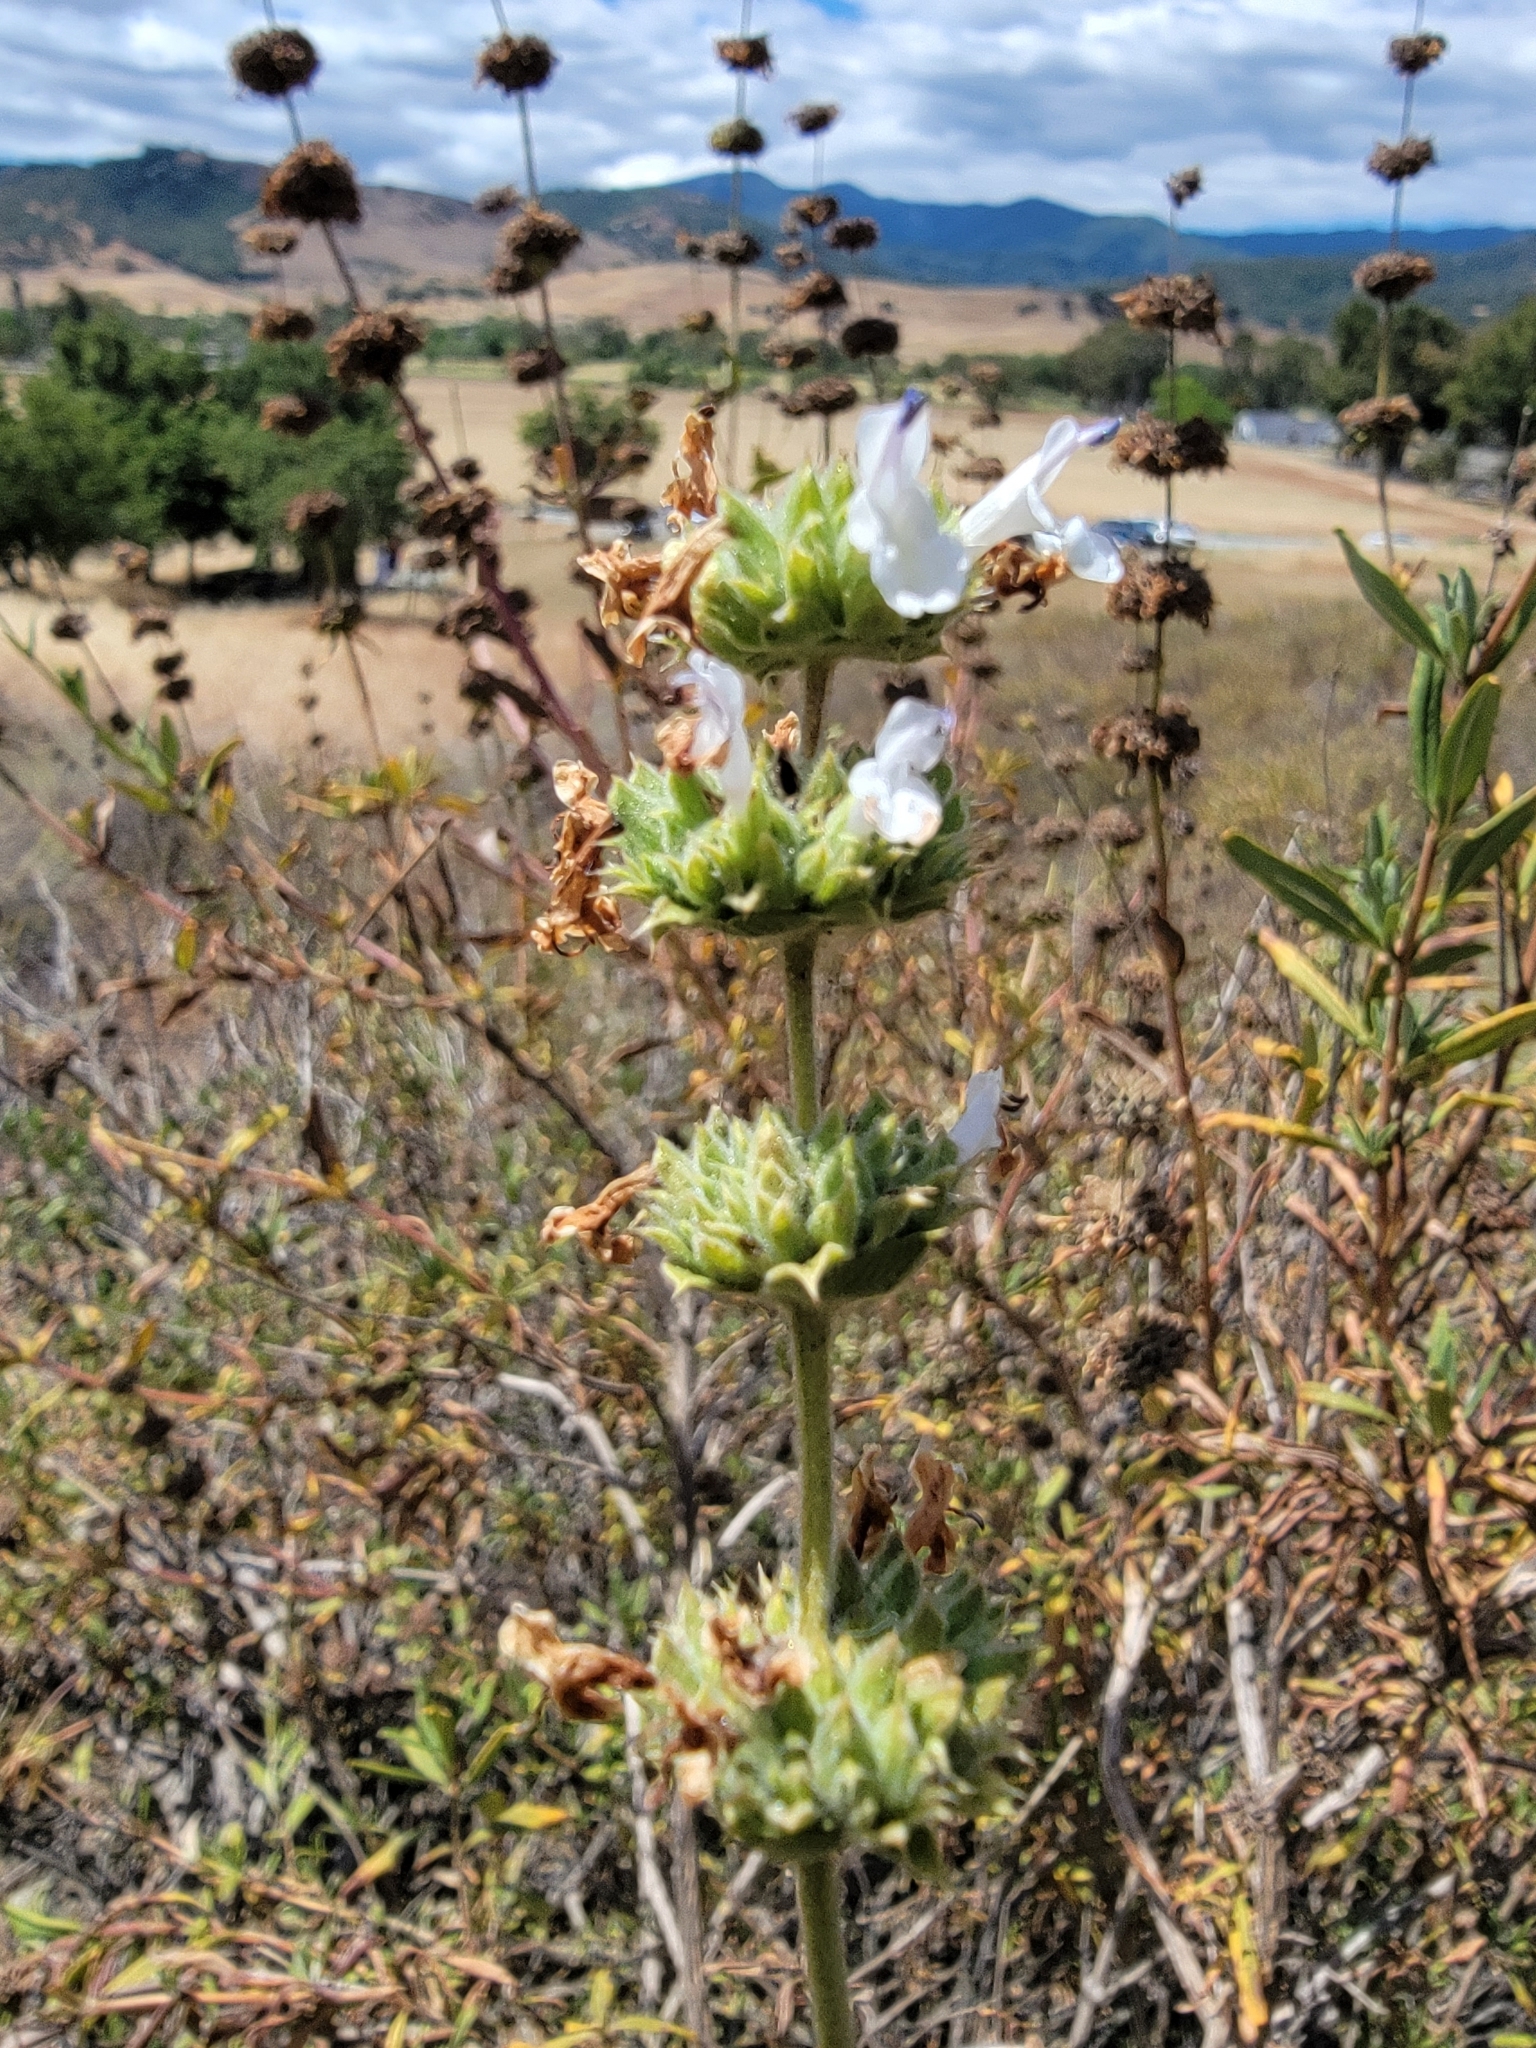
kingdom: Plantae
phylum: Tracheophyta
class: Magnoliopsida
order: Lamiales
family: Lamiaceae
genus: Salvia
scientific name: Salvia mellifera
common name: Black sage
